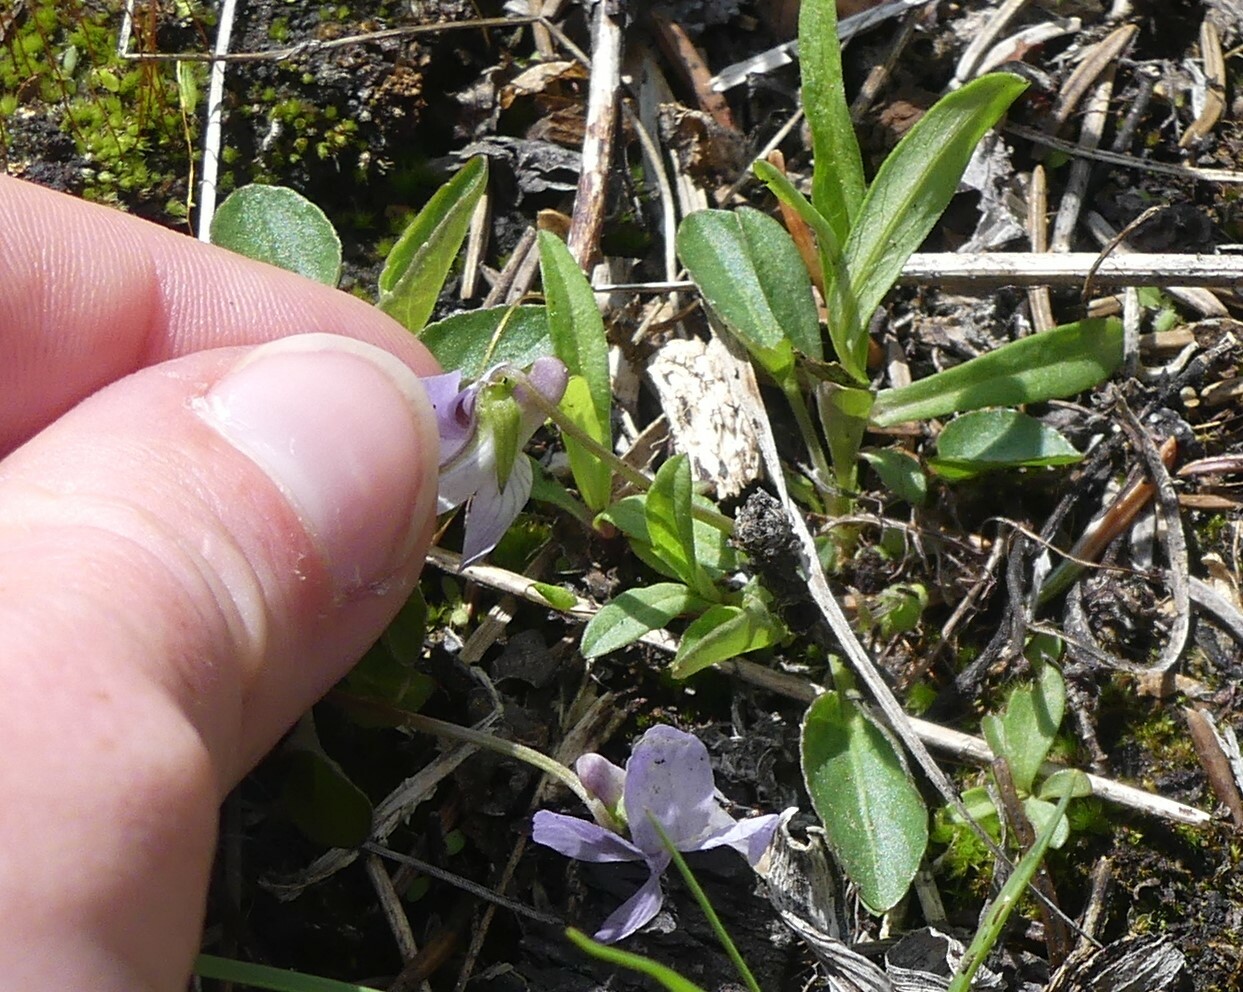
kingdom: Plantae
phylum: Tracheophyta
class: Magnoliopsida
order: Malpighiales
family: Violaceae
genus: Viola
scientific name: Viola adunca
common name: Sand violet
